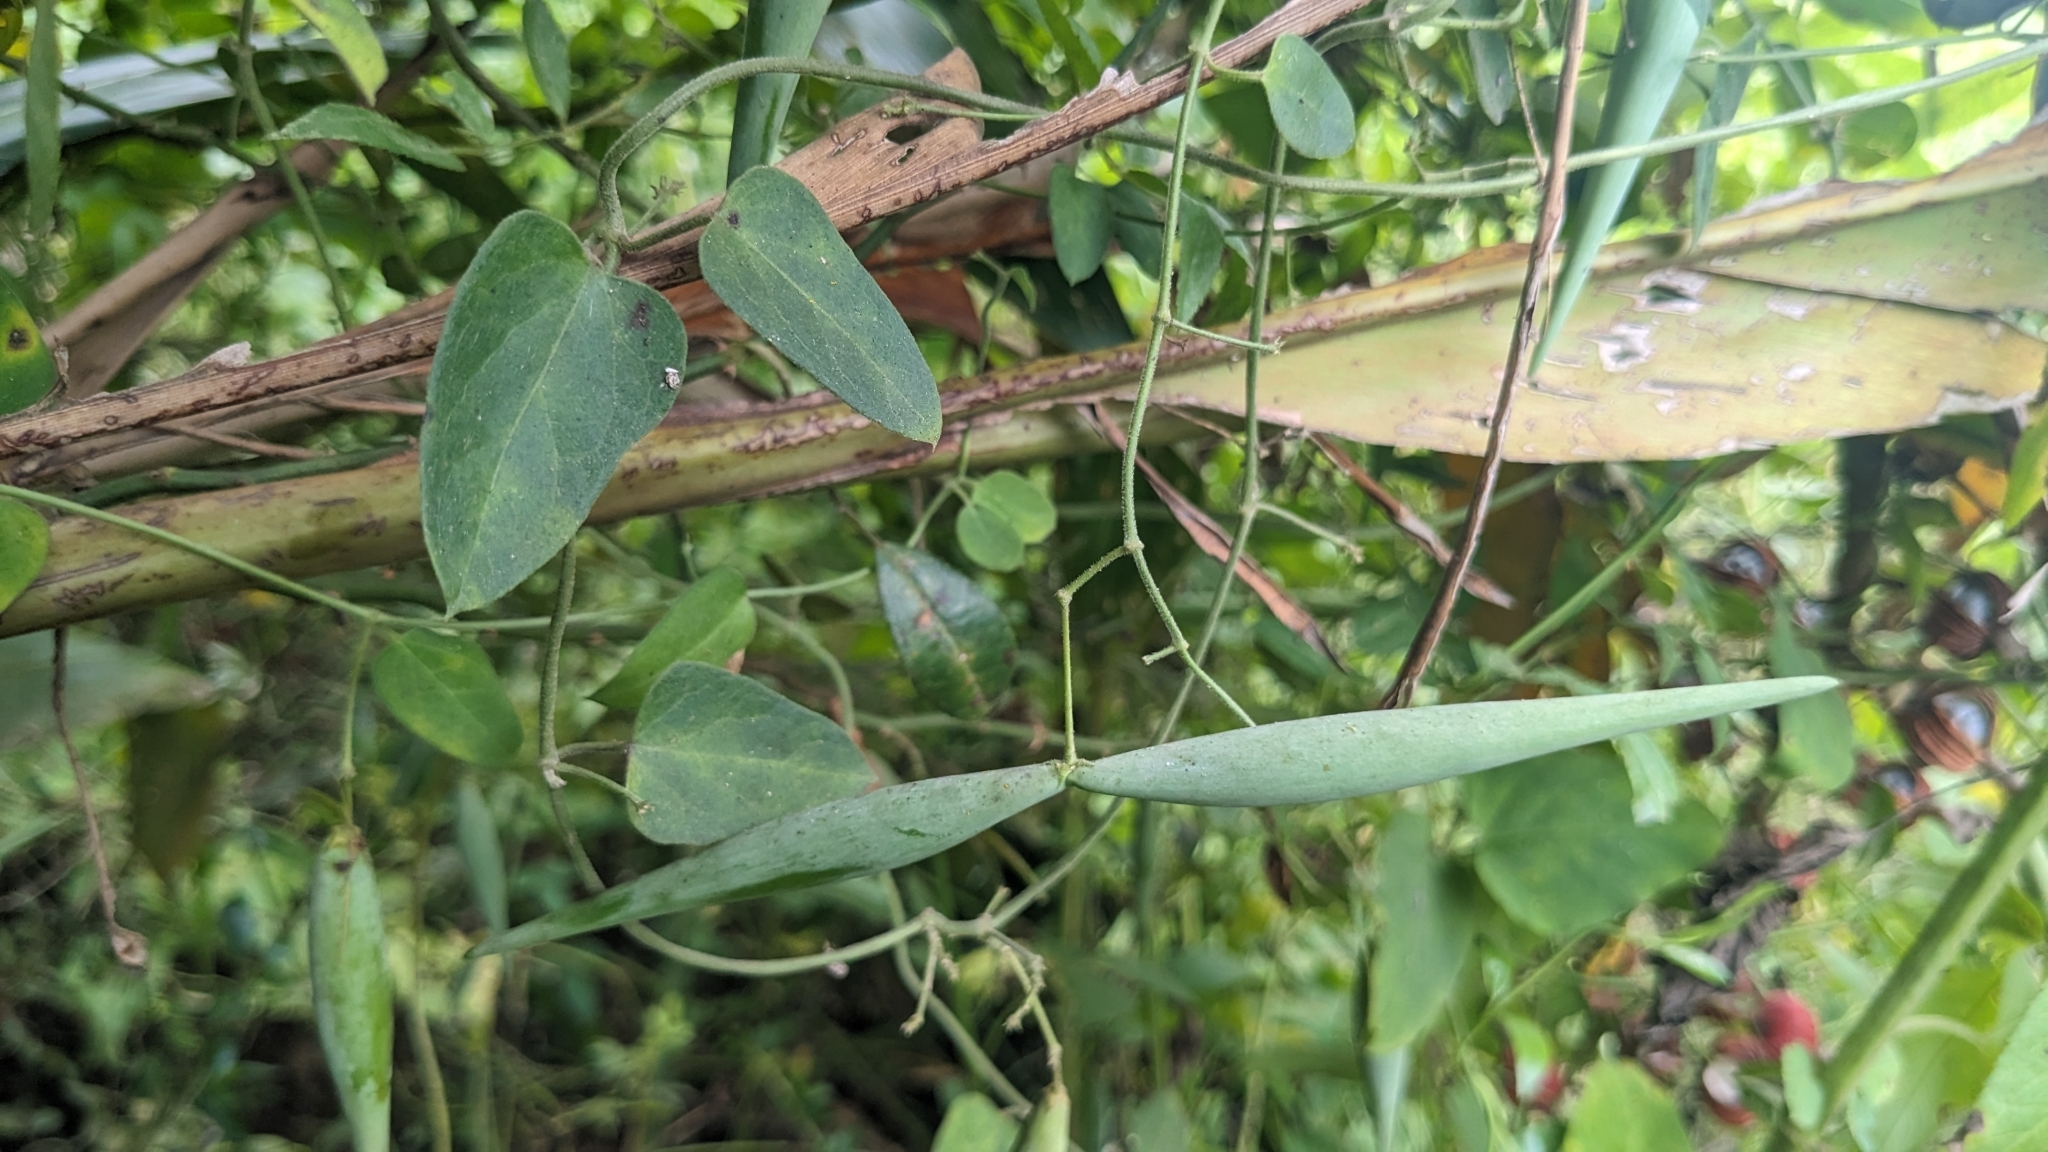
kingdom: Plantae
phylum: Tracheophyta
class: Magnoliopsida
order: Gentianales
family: Apocynaceae
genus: Cynanchum
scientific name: Cynanchum mooreanum
